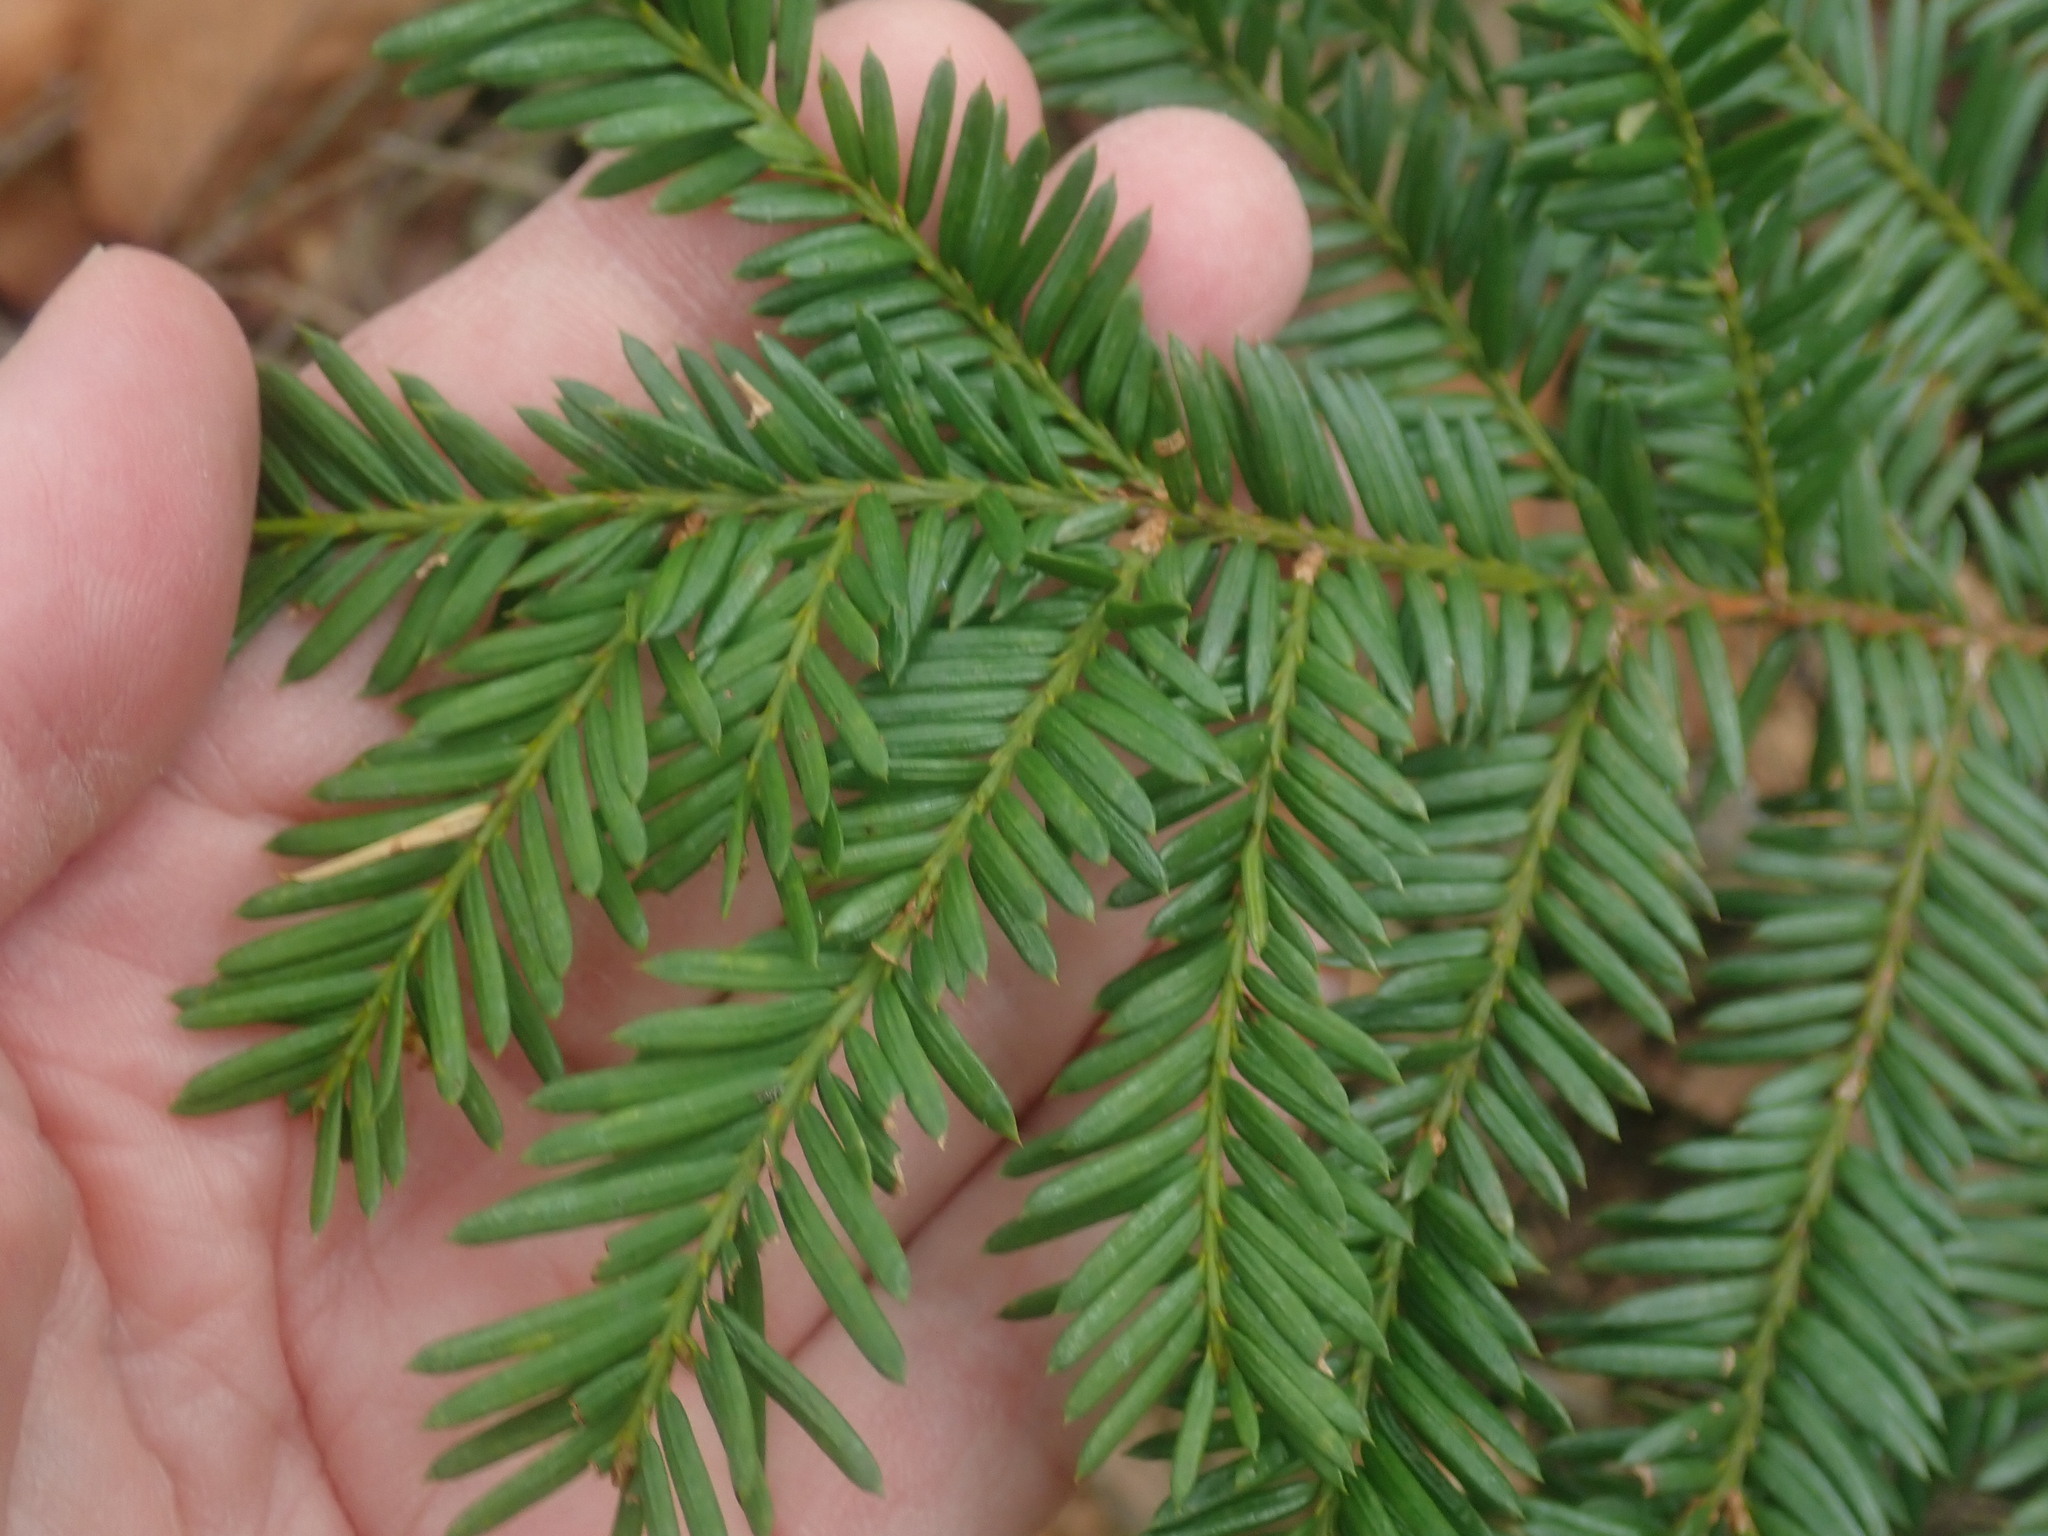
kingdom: Plantae
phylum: Tracheophyta
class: Pinopsida
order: Pinales
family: Taxaceae
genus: Taxus
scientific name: Taxus canadensis
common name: American yew
